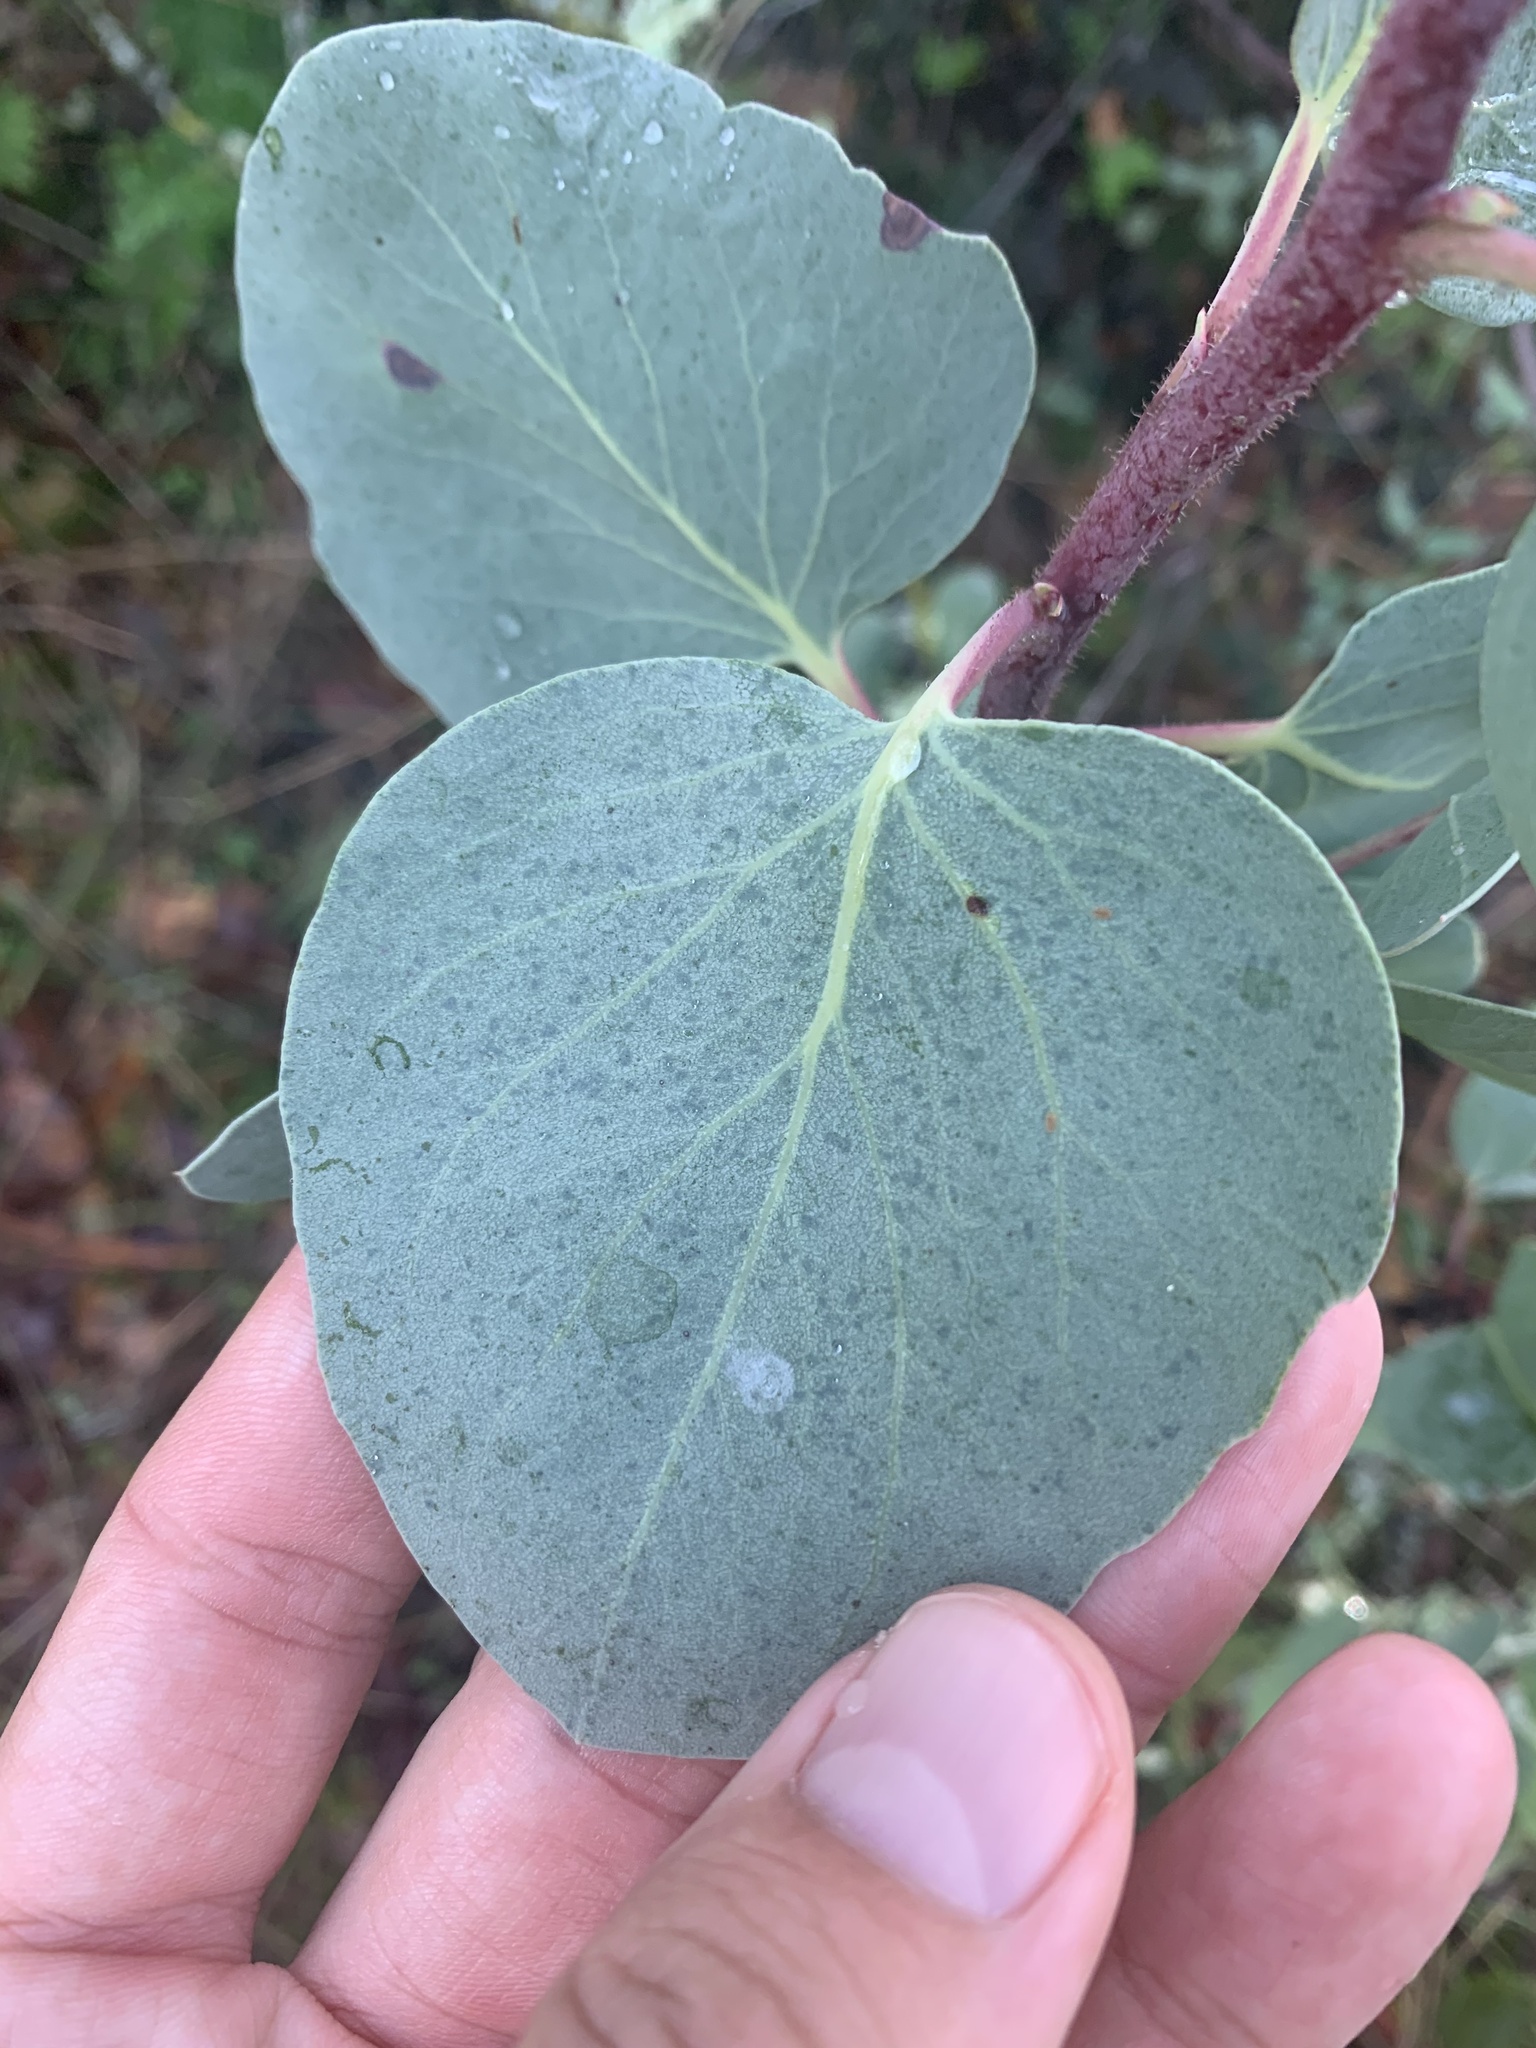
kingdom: Plantae
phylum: Tracheophyta
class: Magnoliopsida
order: Ericales
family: Ericaceae
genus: Arctostaphylos
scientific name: Arctostaphylos viscida
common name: White-leaf manzanita
